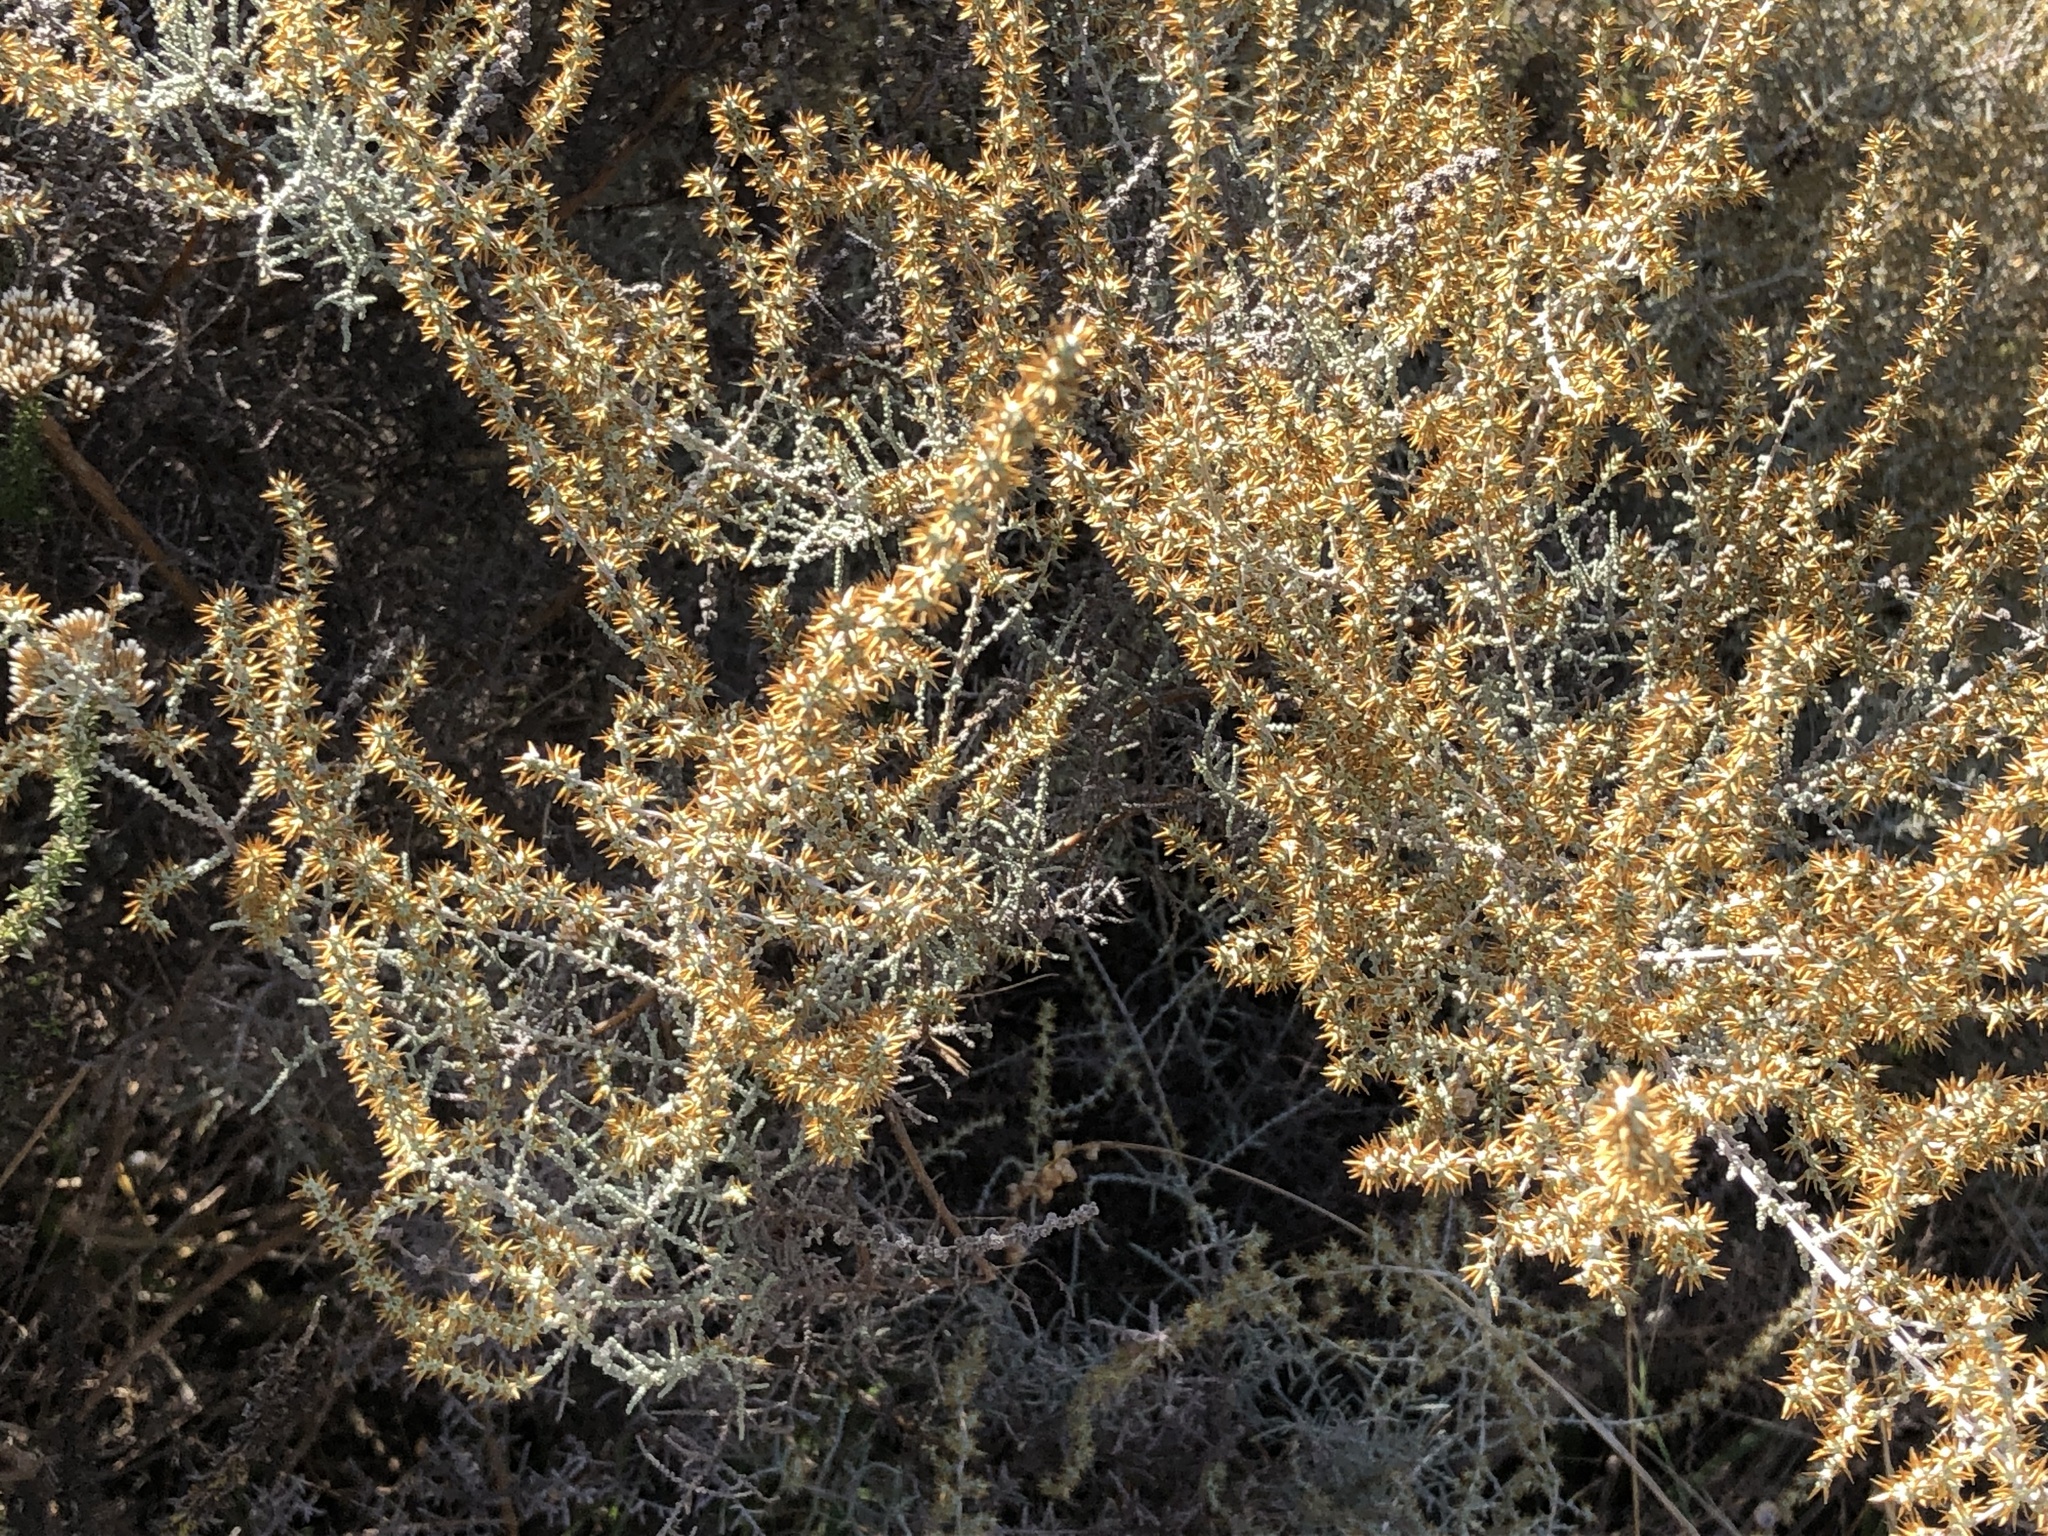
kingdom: Plantae
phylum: Tracheophyta
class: Magnoliopsida
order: Asterales
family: Asteraceae
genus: Seriphium
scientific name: Seriphium plumosum
